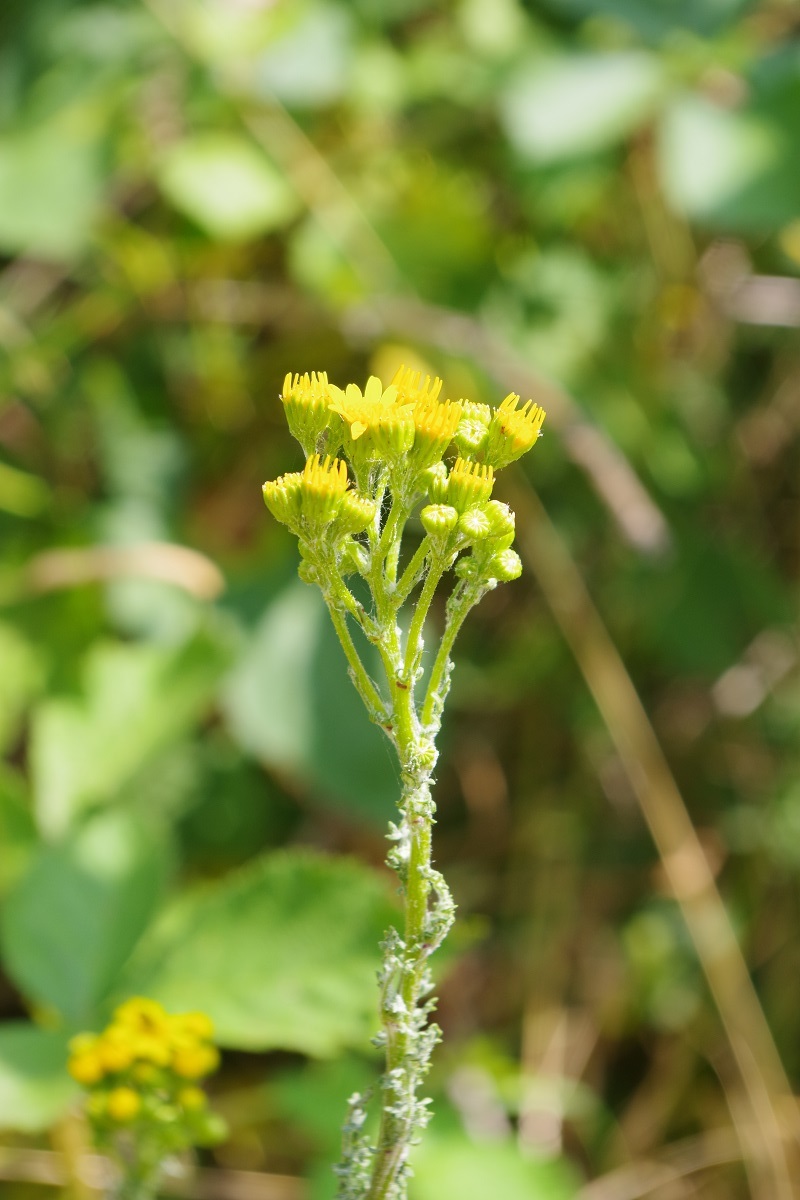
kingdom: Plantae
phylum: Tracheophyta
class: Magnoliopsida
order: Asterales
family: Asteraceae
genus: Jacobaea
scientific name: Jacobaea vulgaris
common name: Stinking willie
